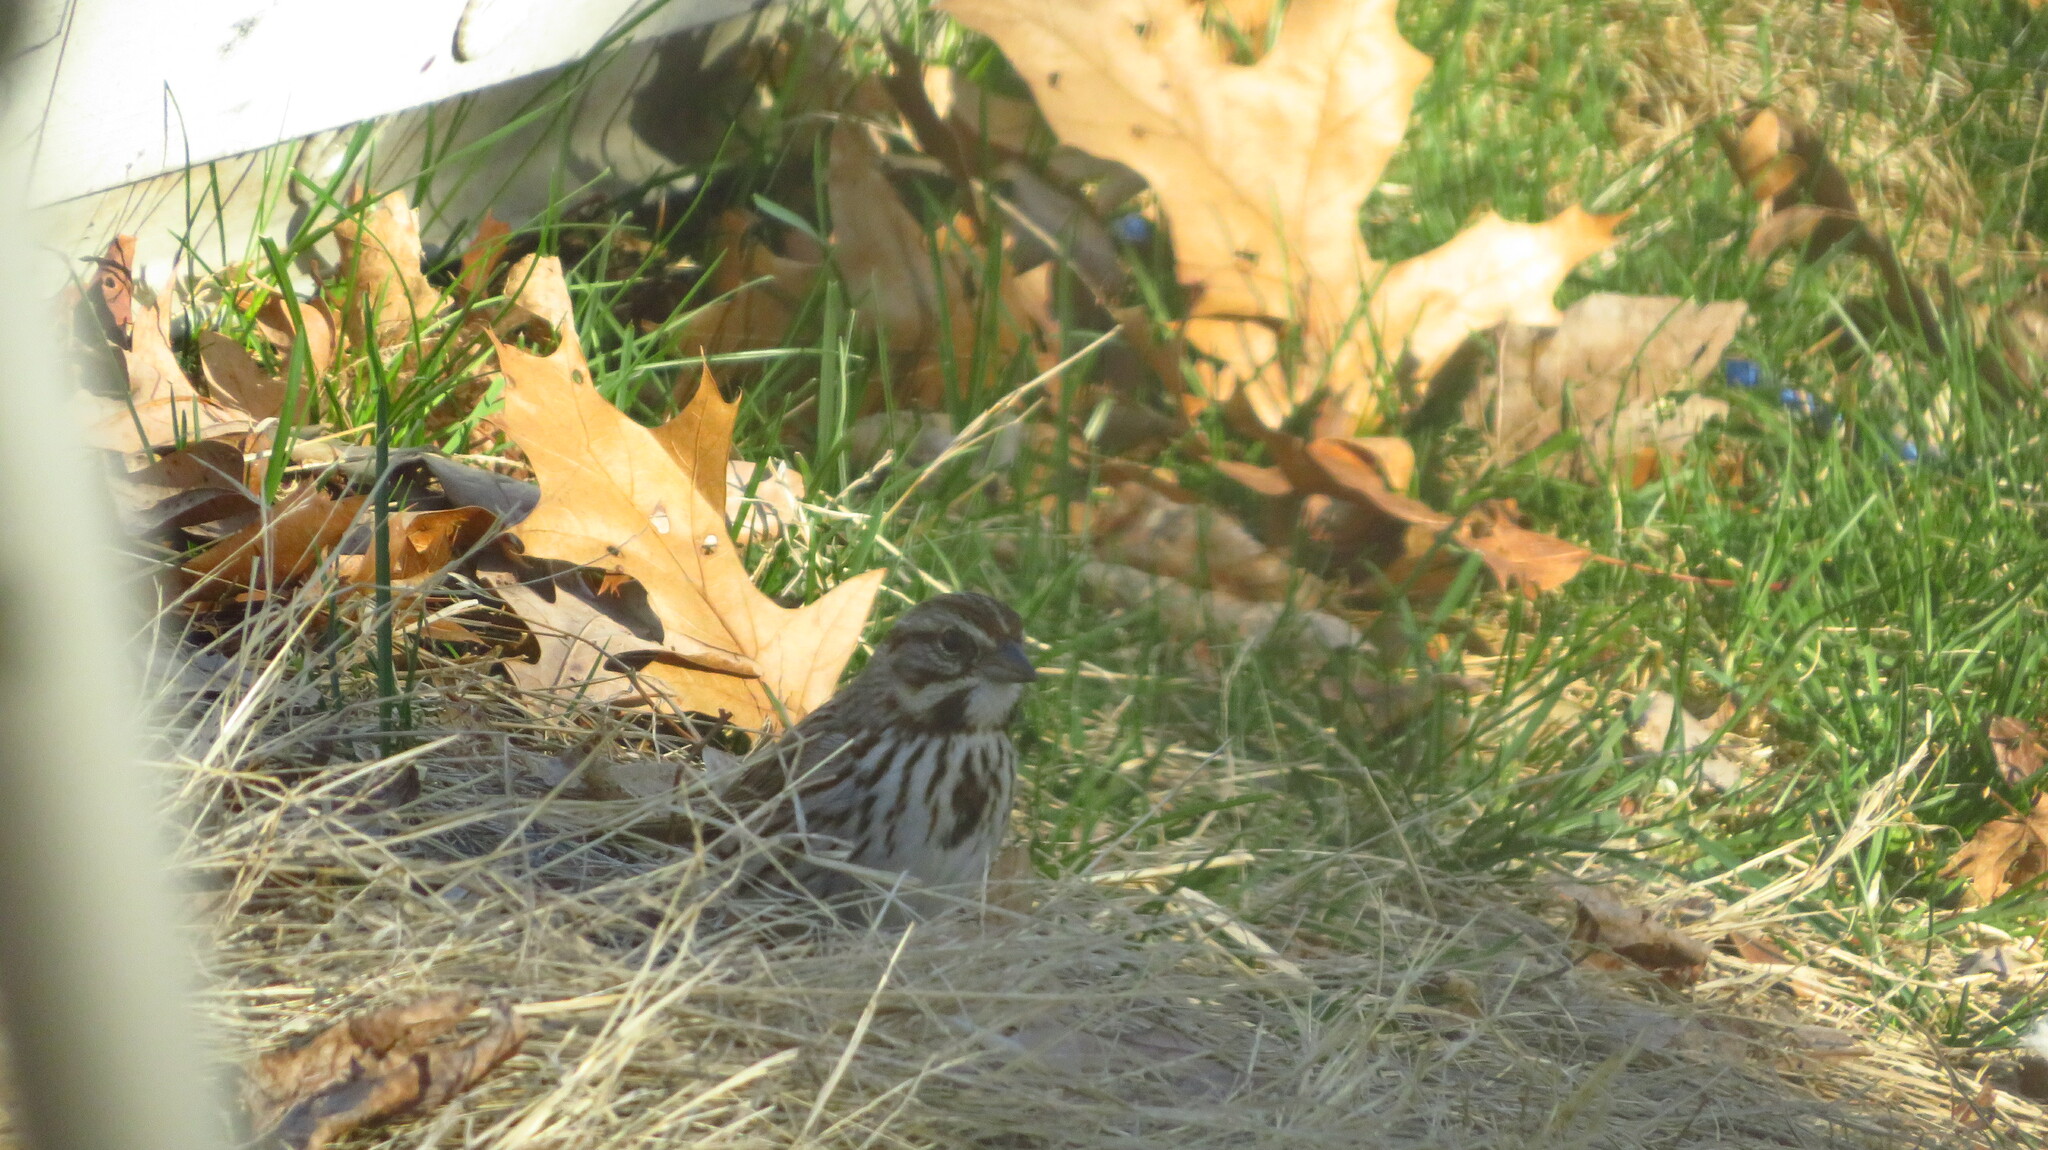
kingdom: Animalia
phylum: Chordata
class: Aves
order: Passeriformes
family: Passerellidae
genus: Melospiza
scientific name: Melospiza melodia
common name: Song sparrow
